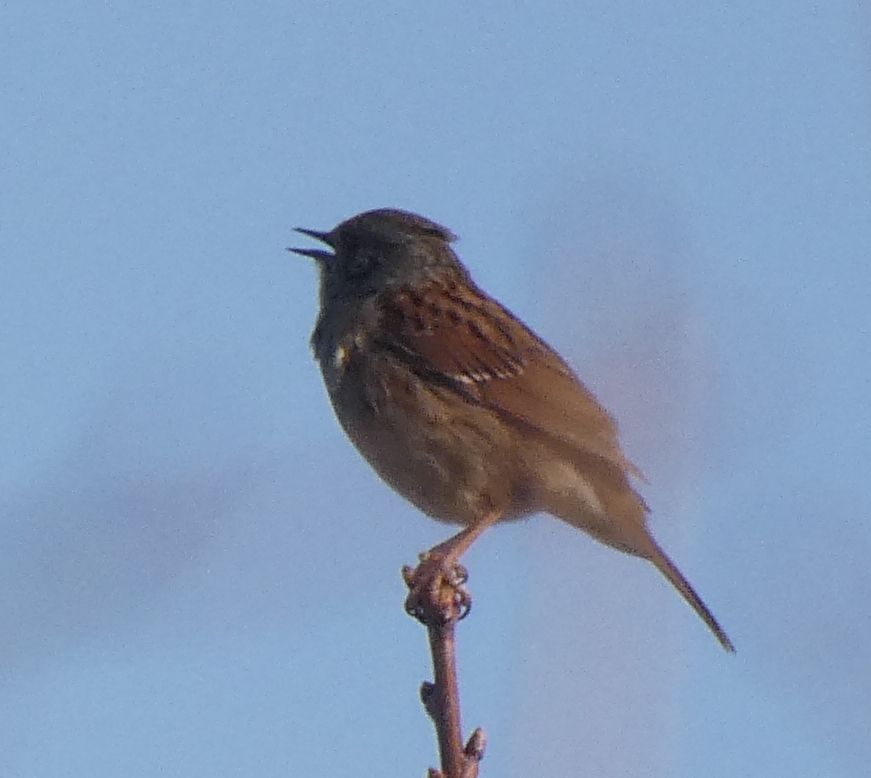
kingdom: Animalia
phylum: Chordata
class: Aves
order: Passeriformes
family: Prunellidae
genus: Prunella
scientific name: Prunella modularis
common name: Dunnock
